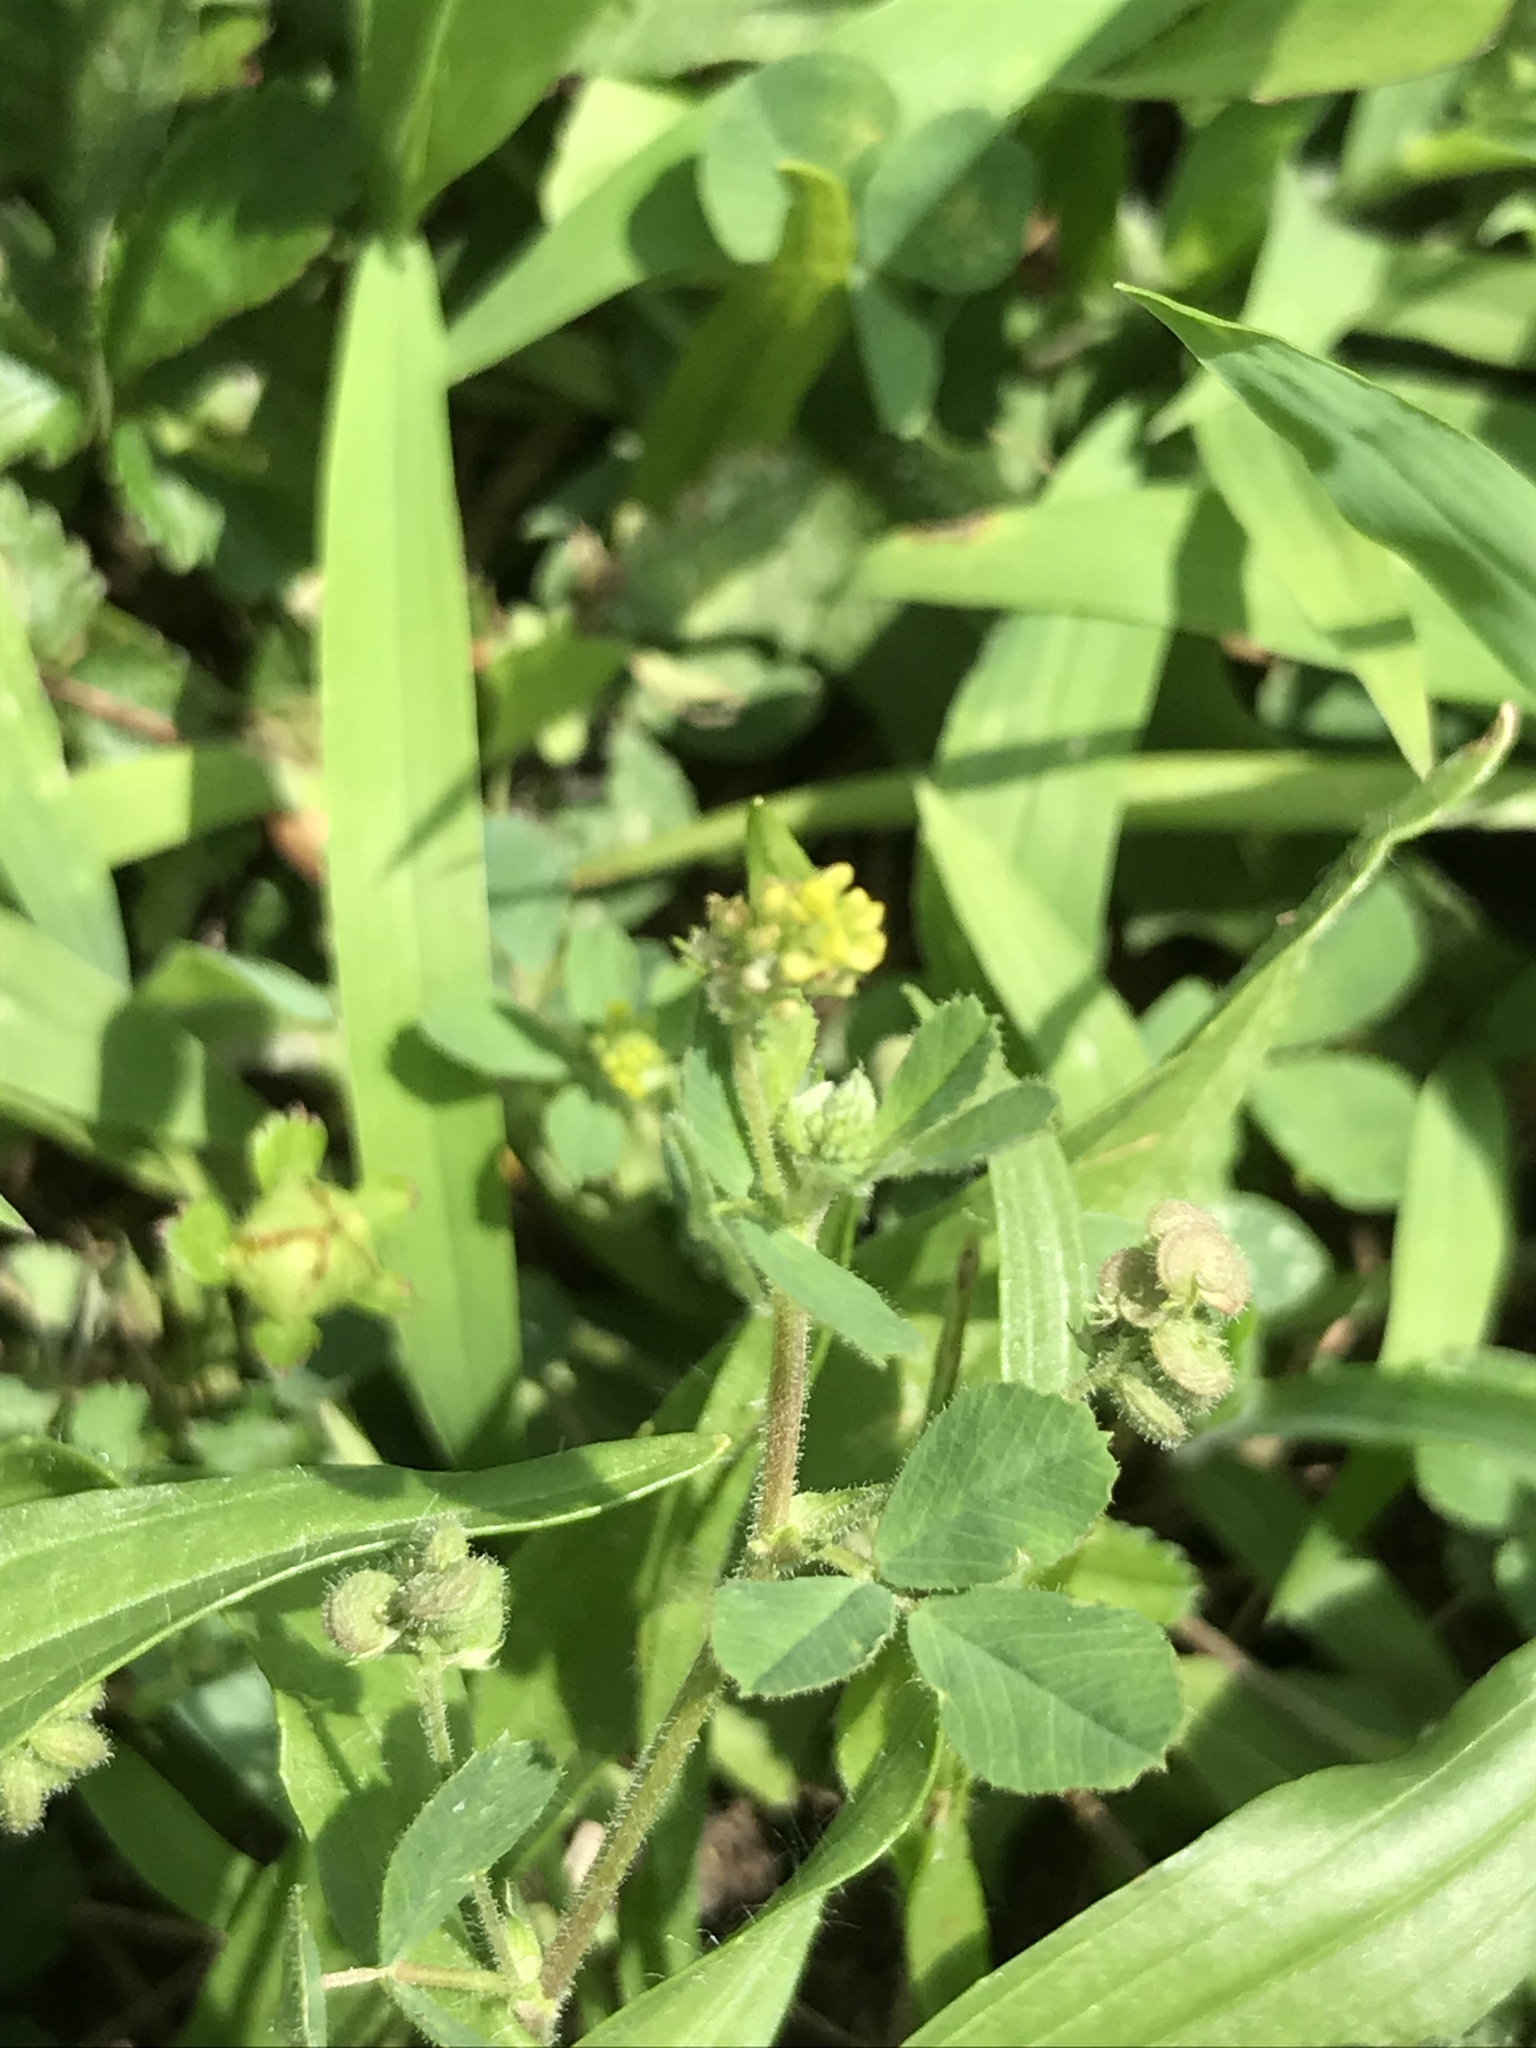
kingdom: Plantae
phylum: Tracheophyta
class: Magnoliopsida
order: Fabales
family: Fabaceae
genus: Medicago
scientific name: Medicago lupulina
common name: Black medick
